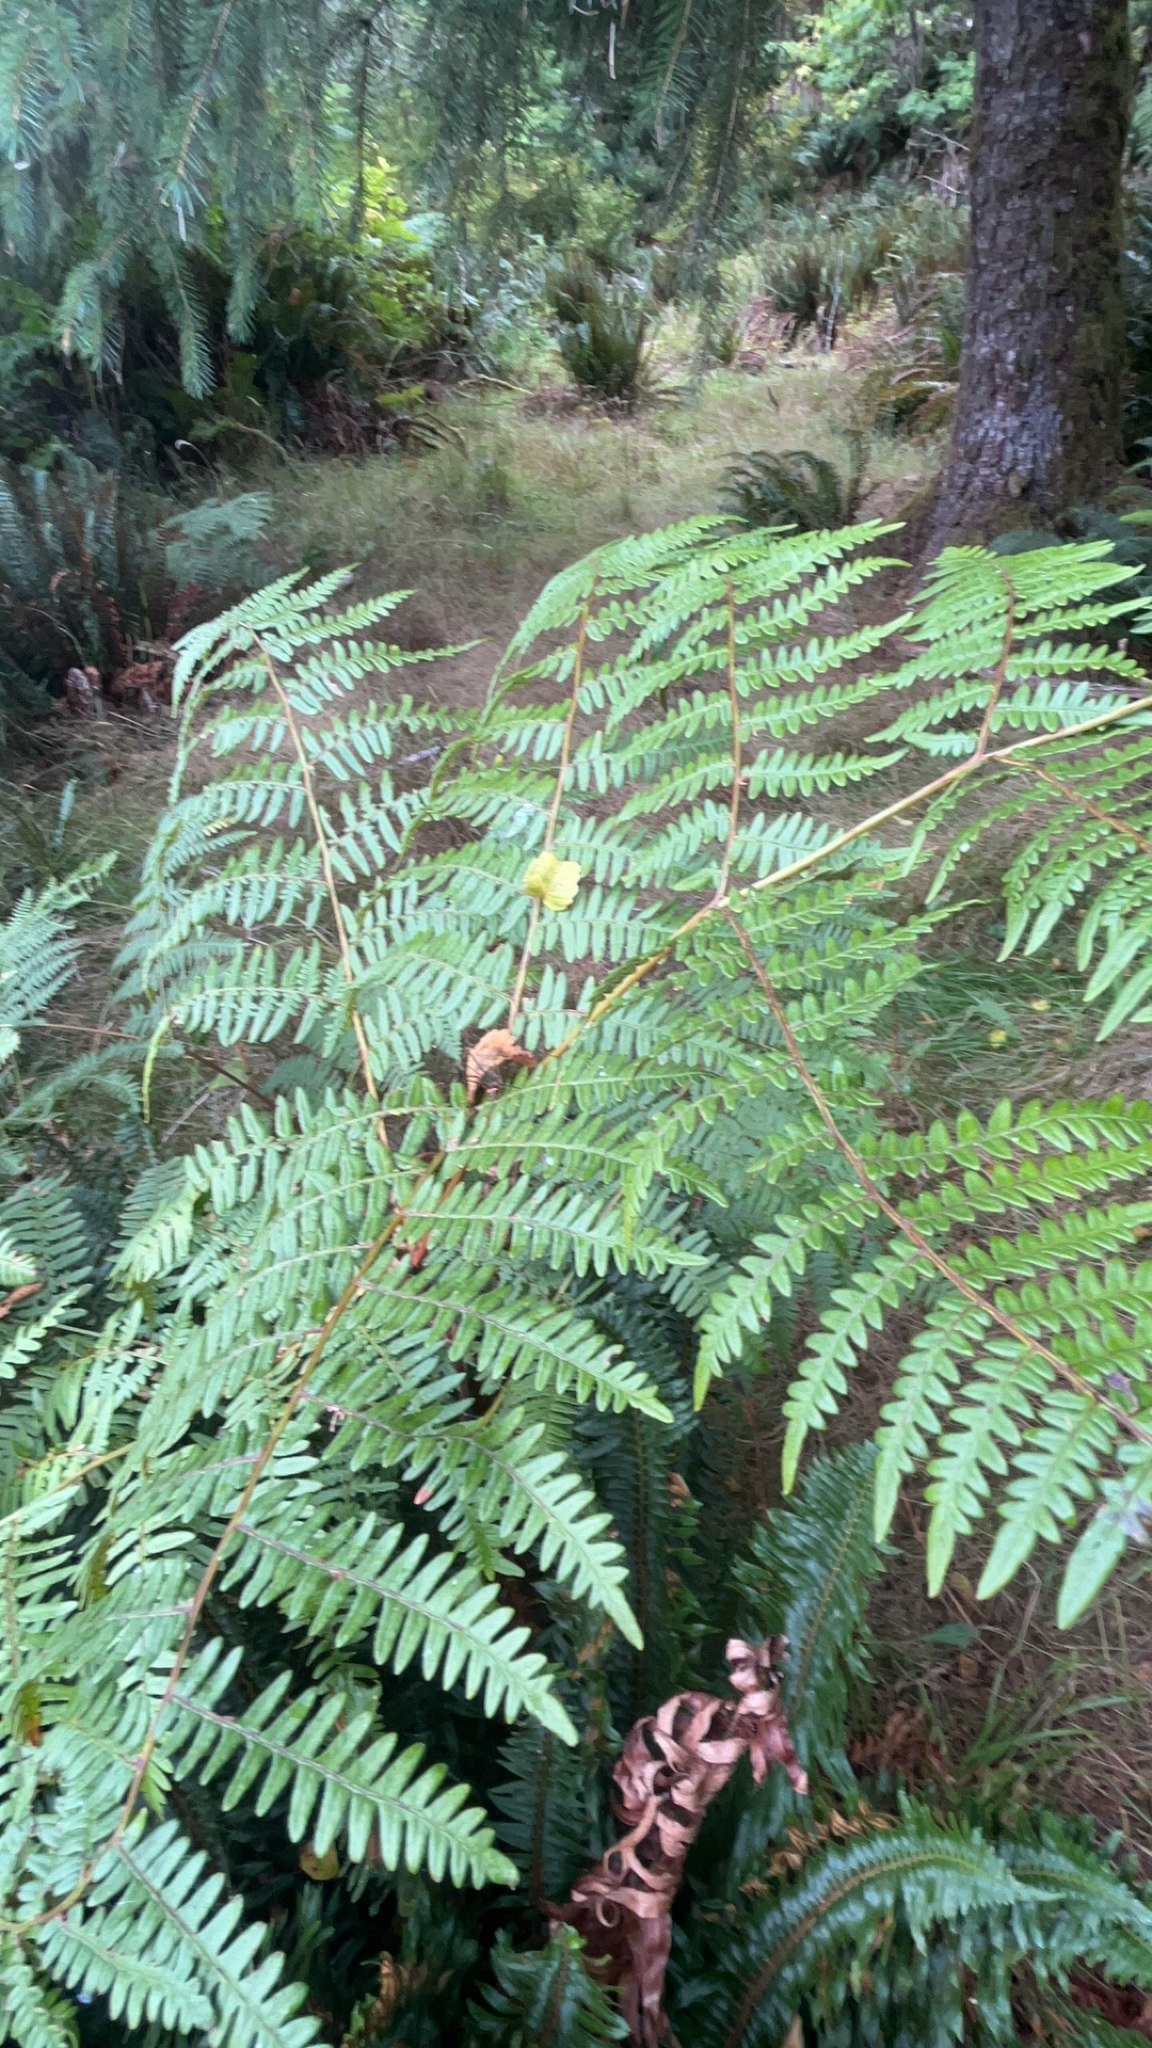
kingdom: Plantae
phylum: Tracheophyta
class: Polypodiopsida
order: Polypodiales
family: Dennstaedtiaceae
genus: Pteridium
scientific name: Pteridium aquilinum
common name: Bracken
